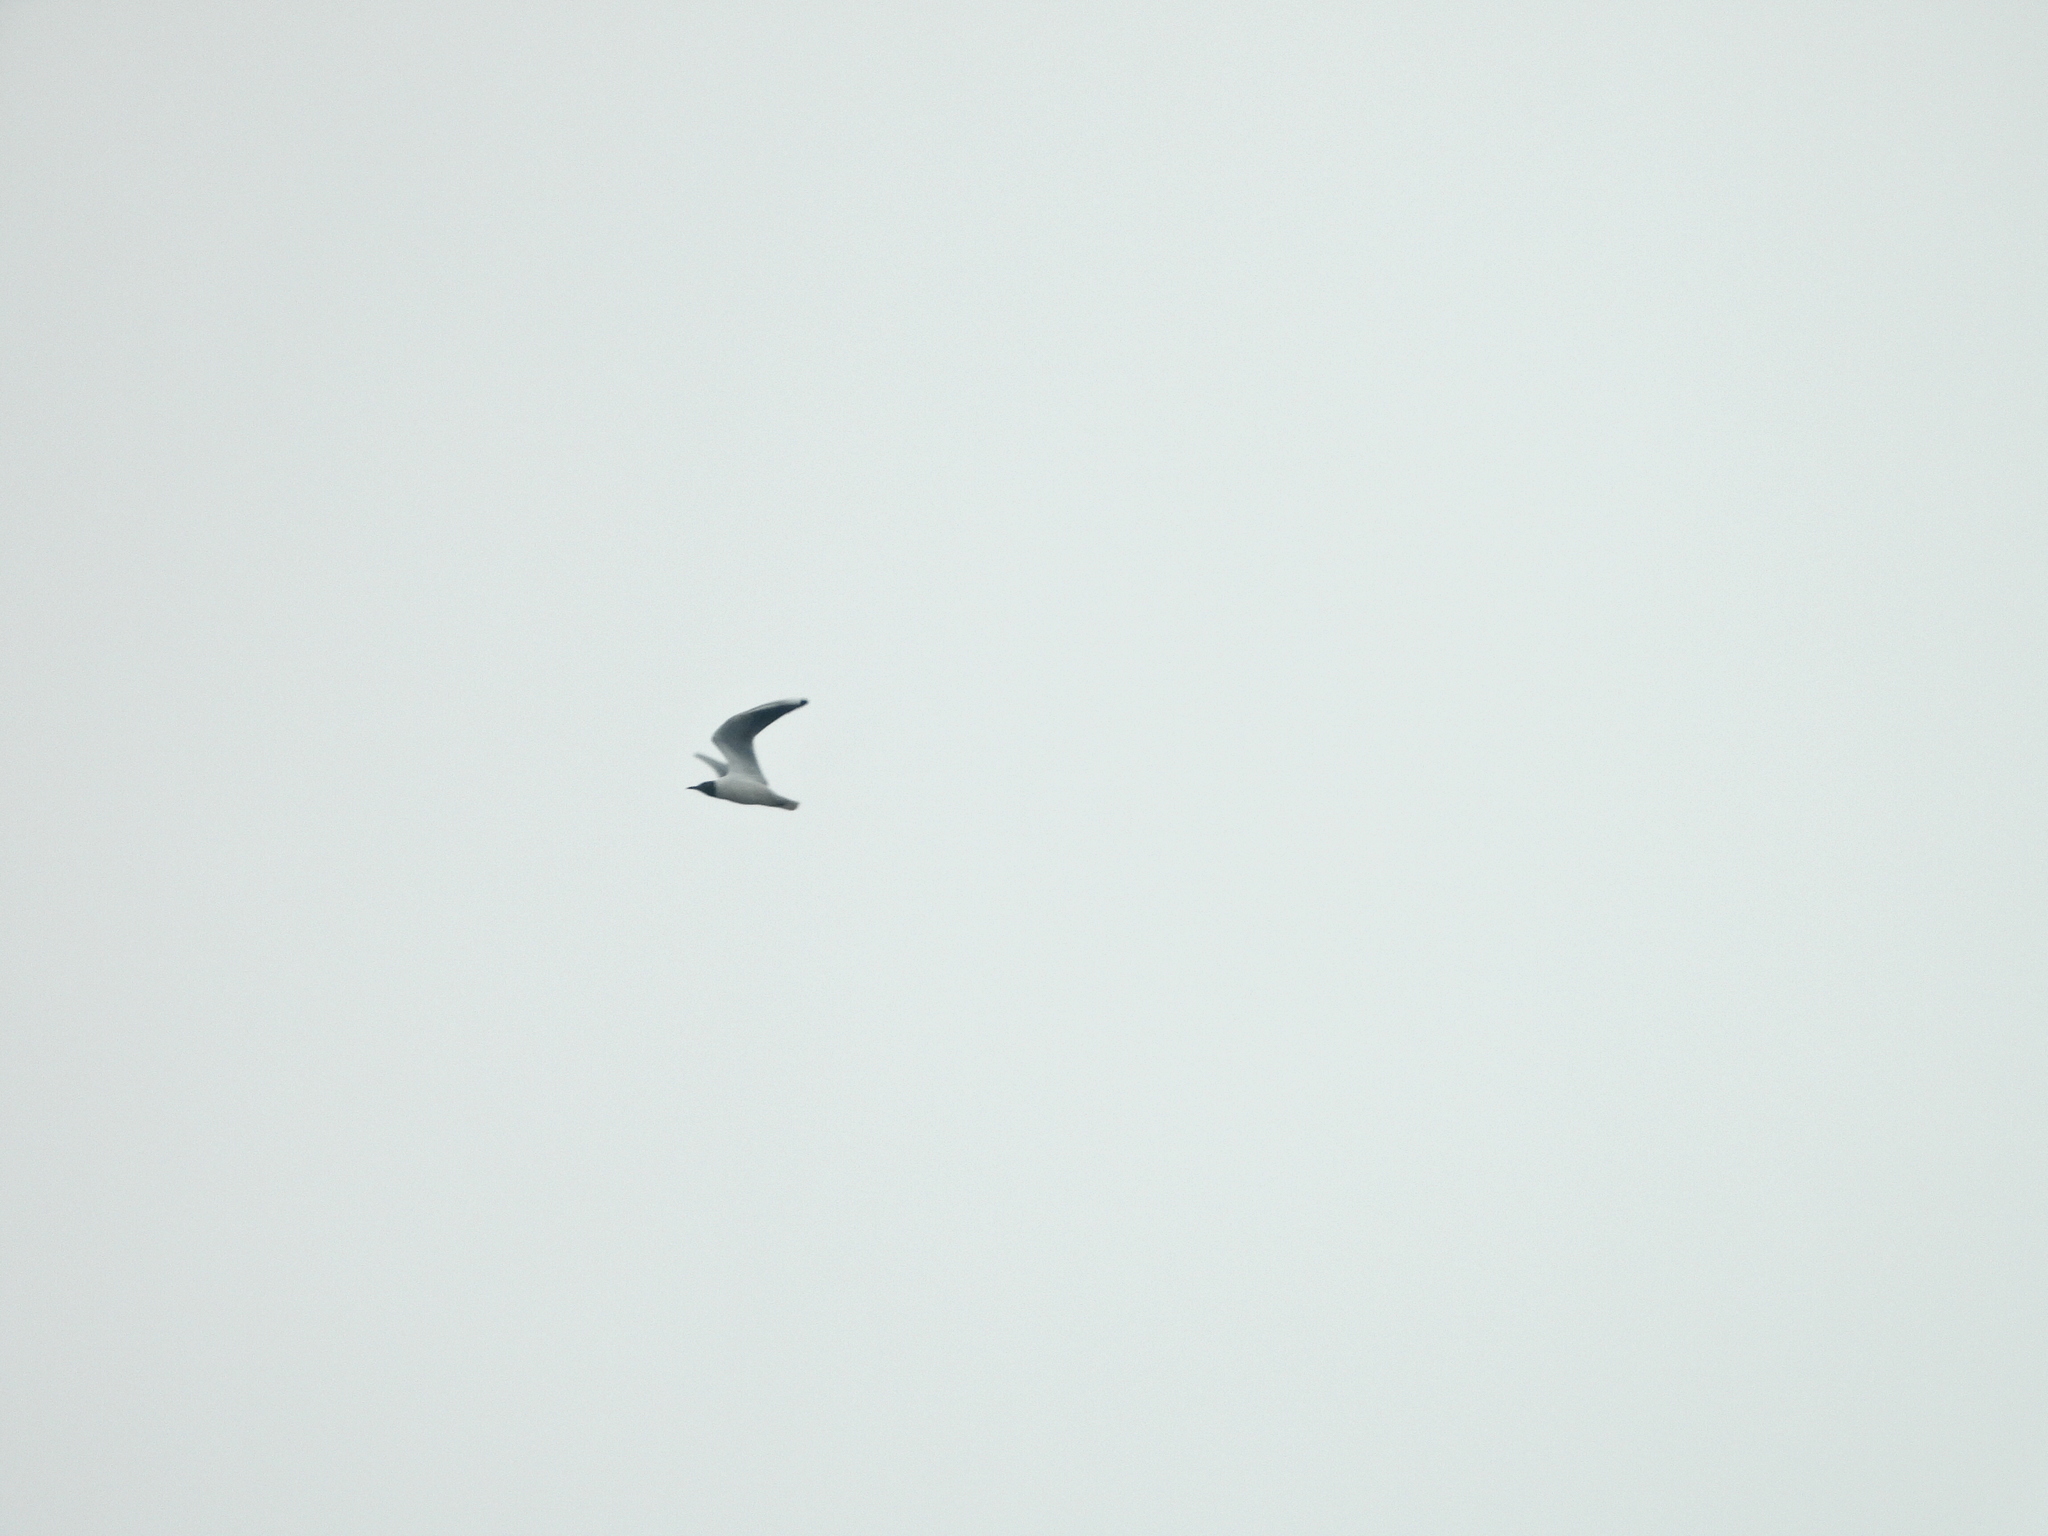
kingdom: Animalia
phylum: Chordata
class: Aves
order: Charadriiformes
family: Laridae
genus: Chroicocephalus
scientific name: Chroicocephalus ridibundus
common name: Black-headed gull
